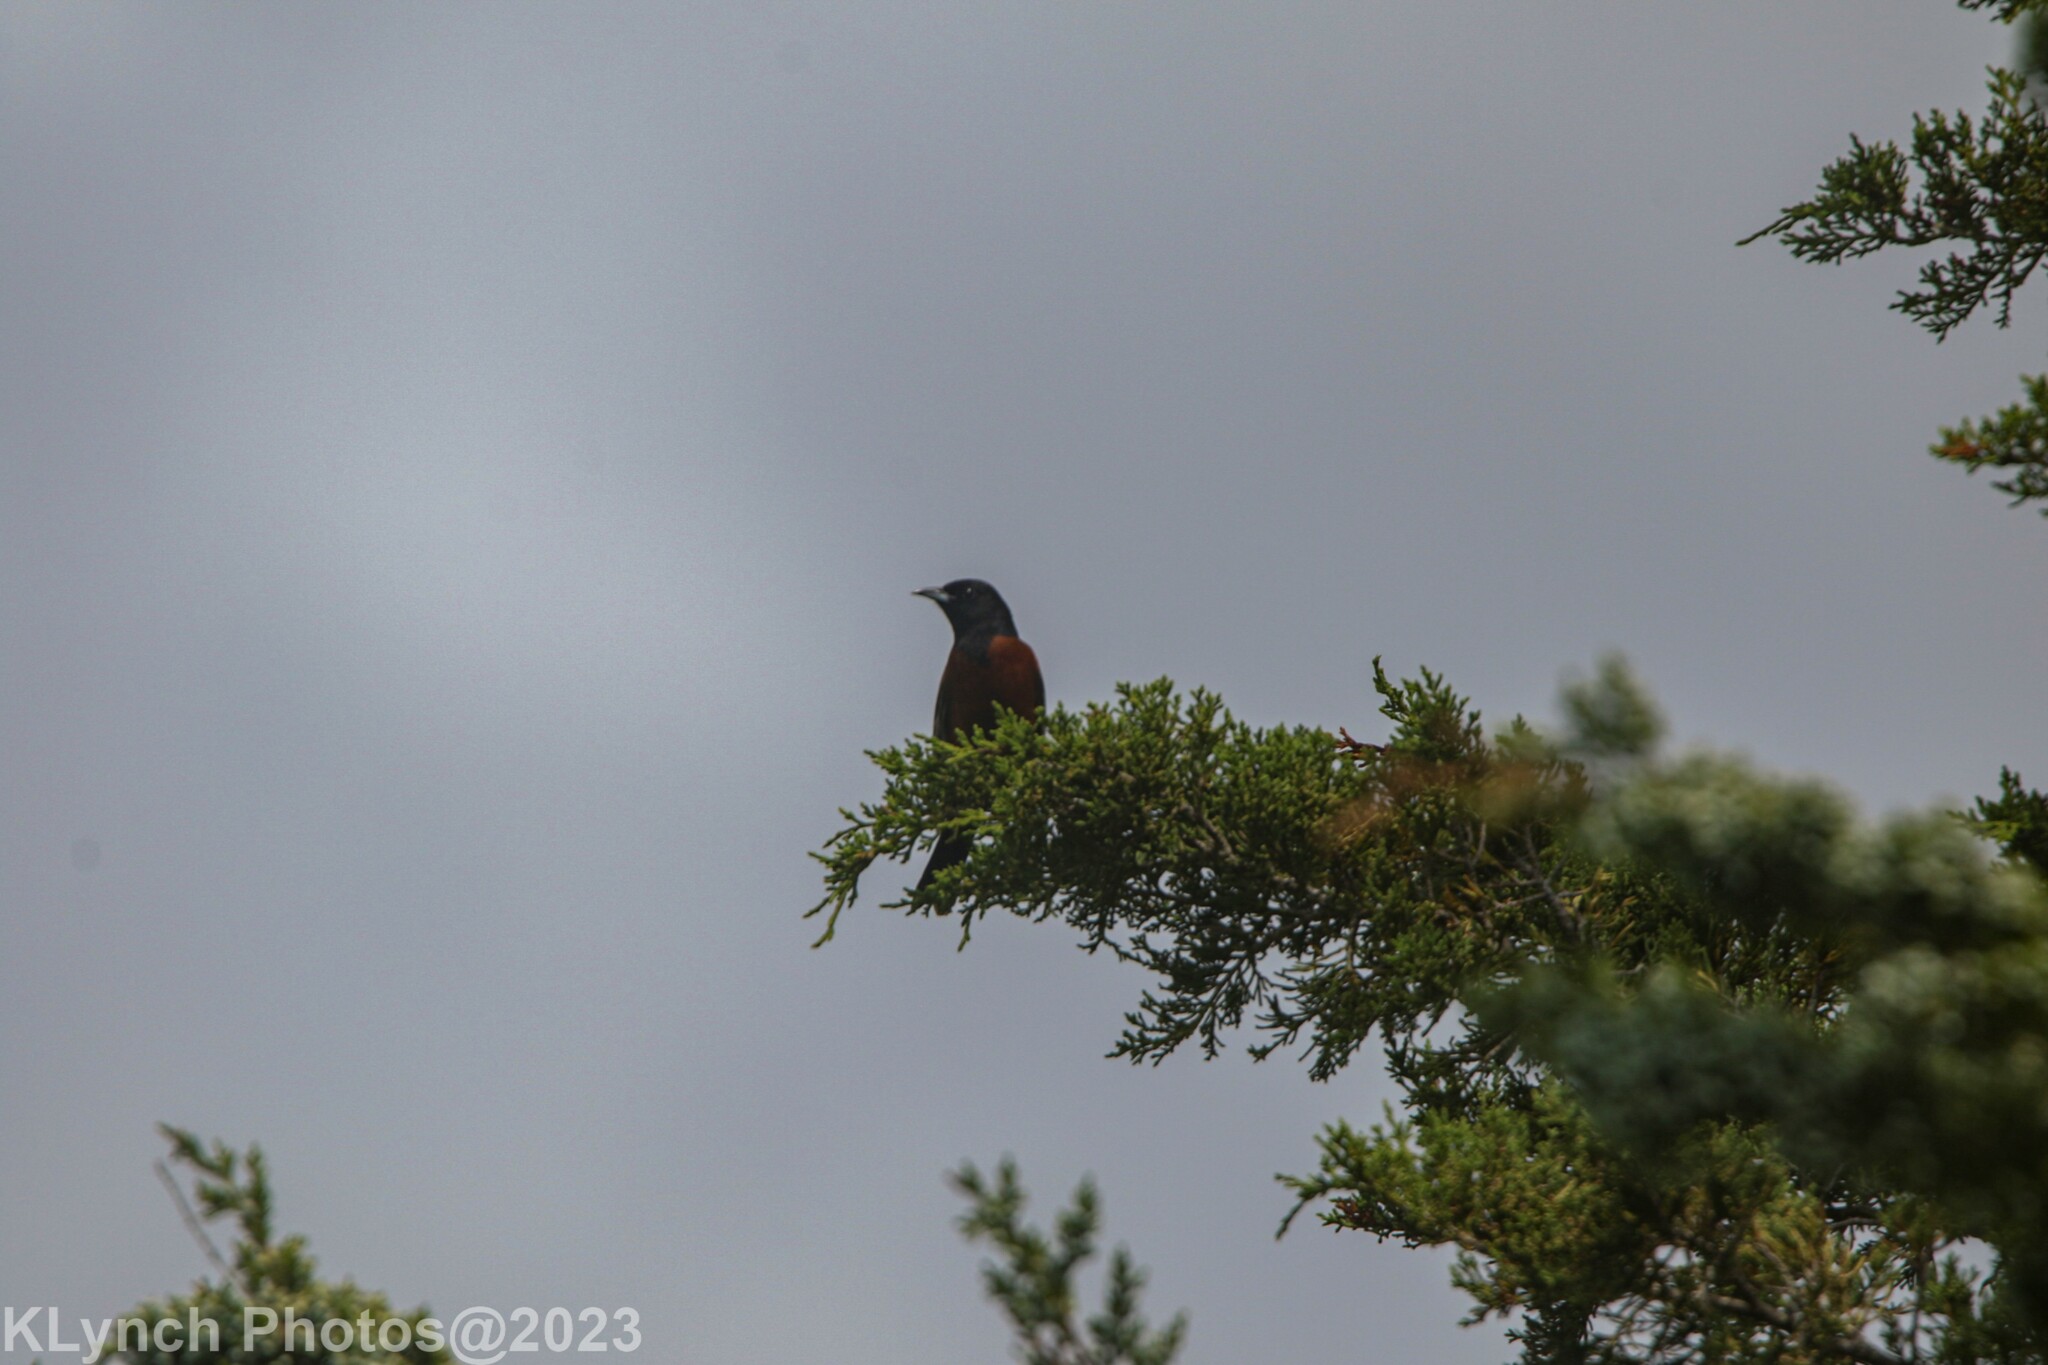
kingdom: Animalia
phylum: Chordata
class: Aves
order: Passeriformes
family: Icteridae
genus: Icterus
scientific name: Icterus spurius
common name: Orchard oriole
